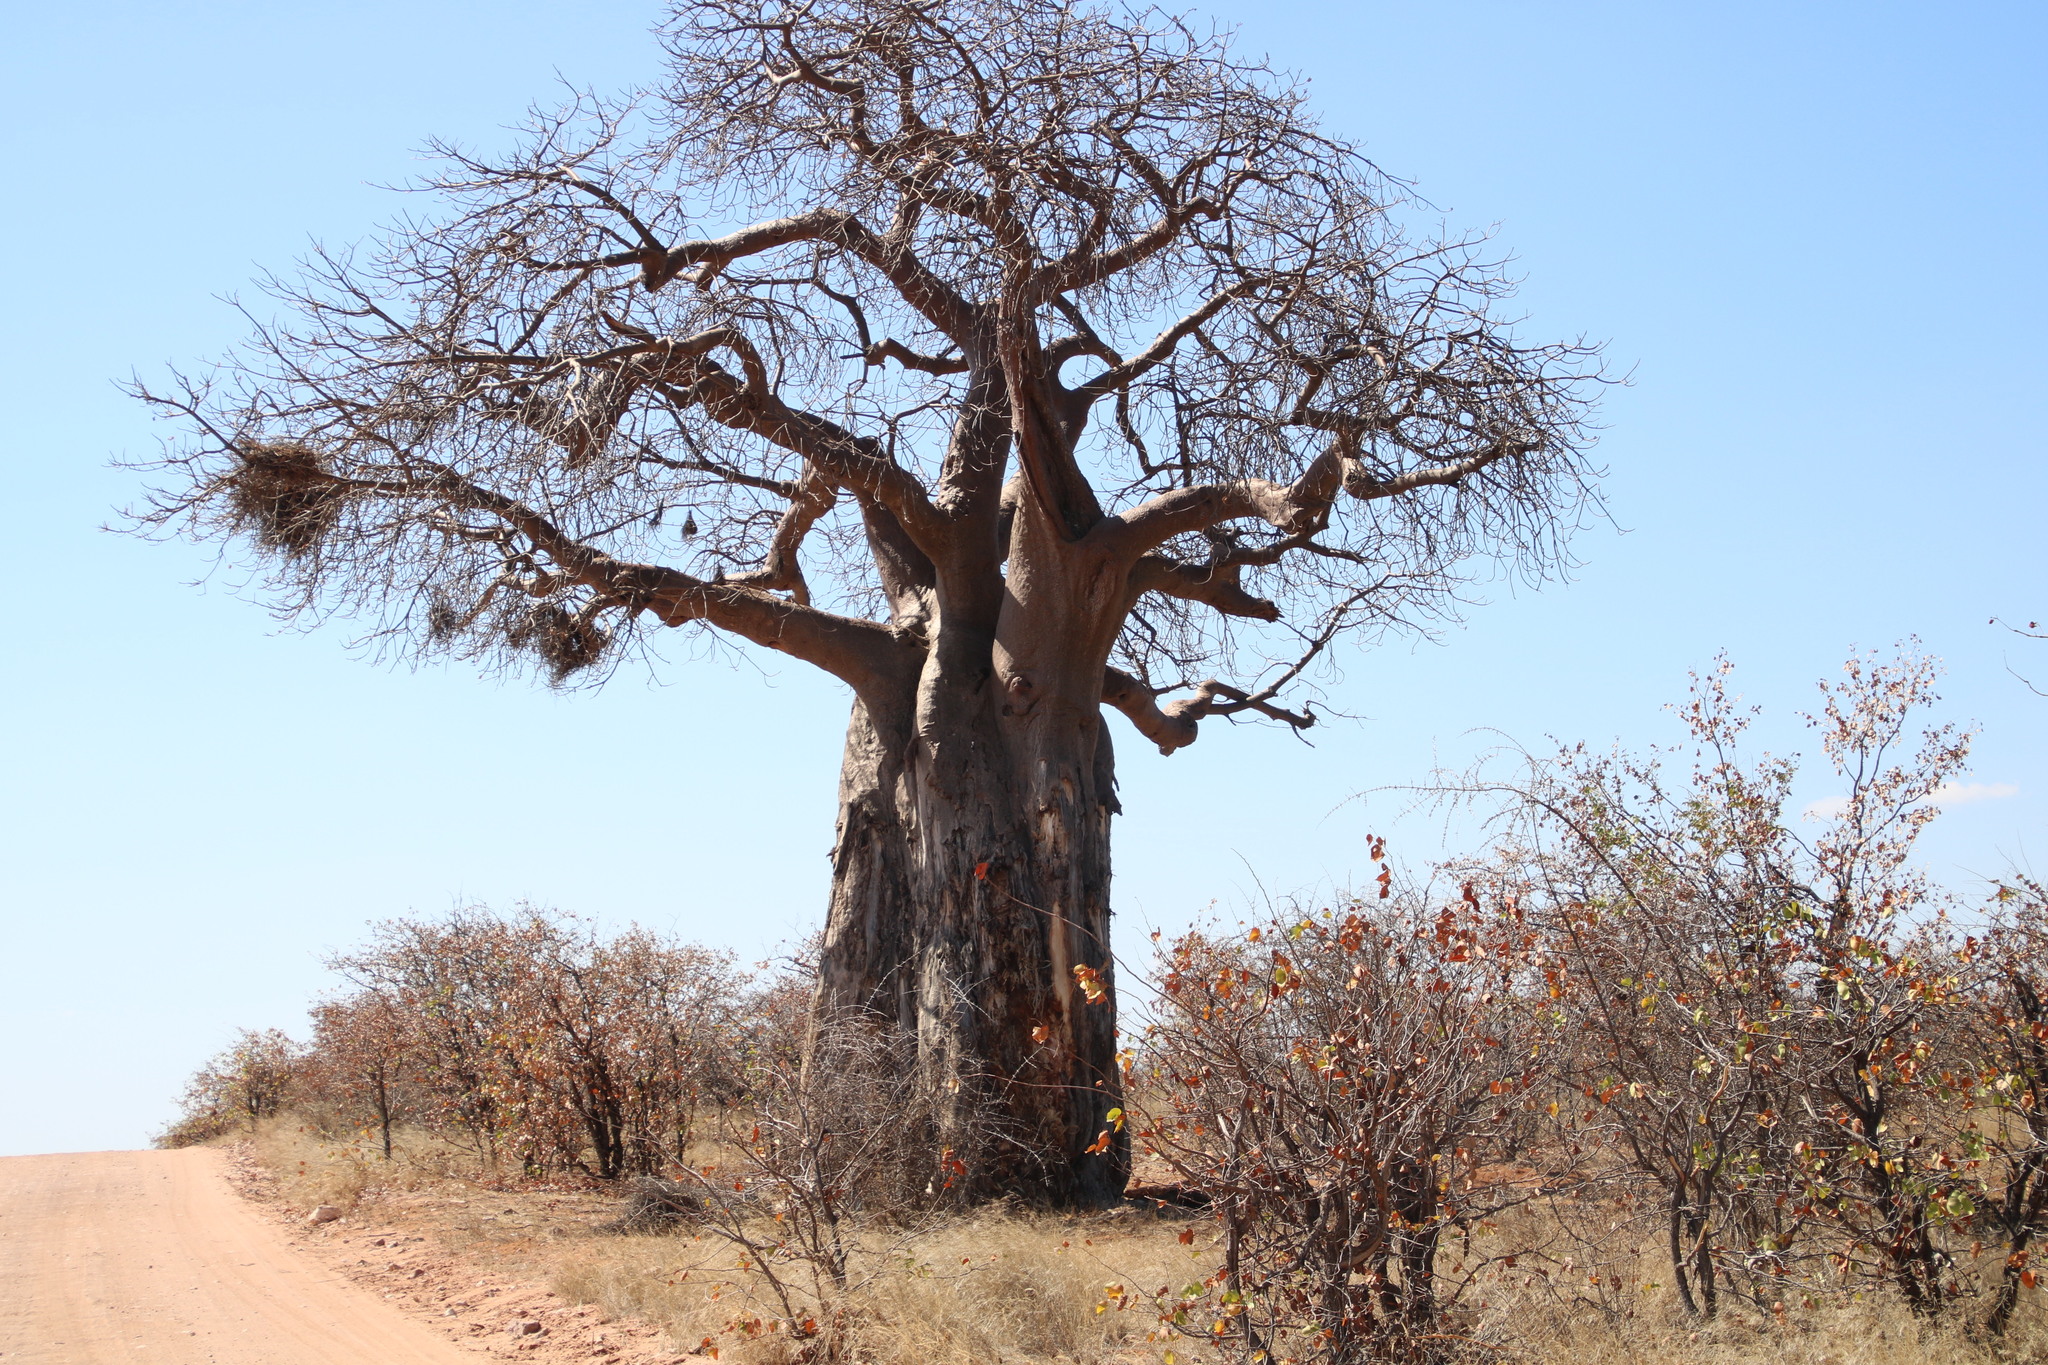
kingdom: Plantae
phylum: Tracheophyta
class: Magnoliopsida
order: Malvales
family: Malvaceae
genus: Adansonia
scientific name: Adansonia digitata
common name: Dead-rat-tree
